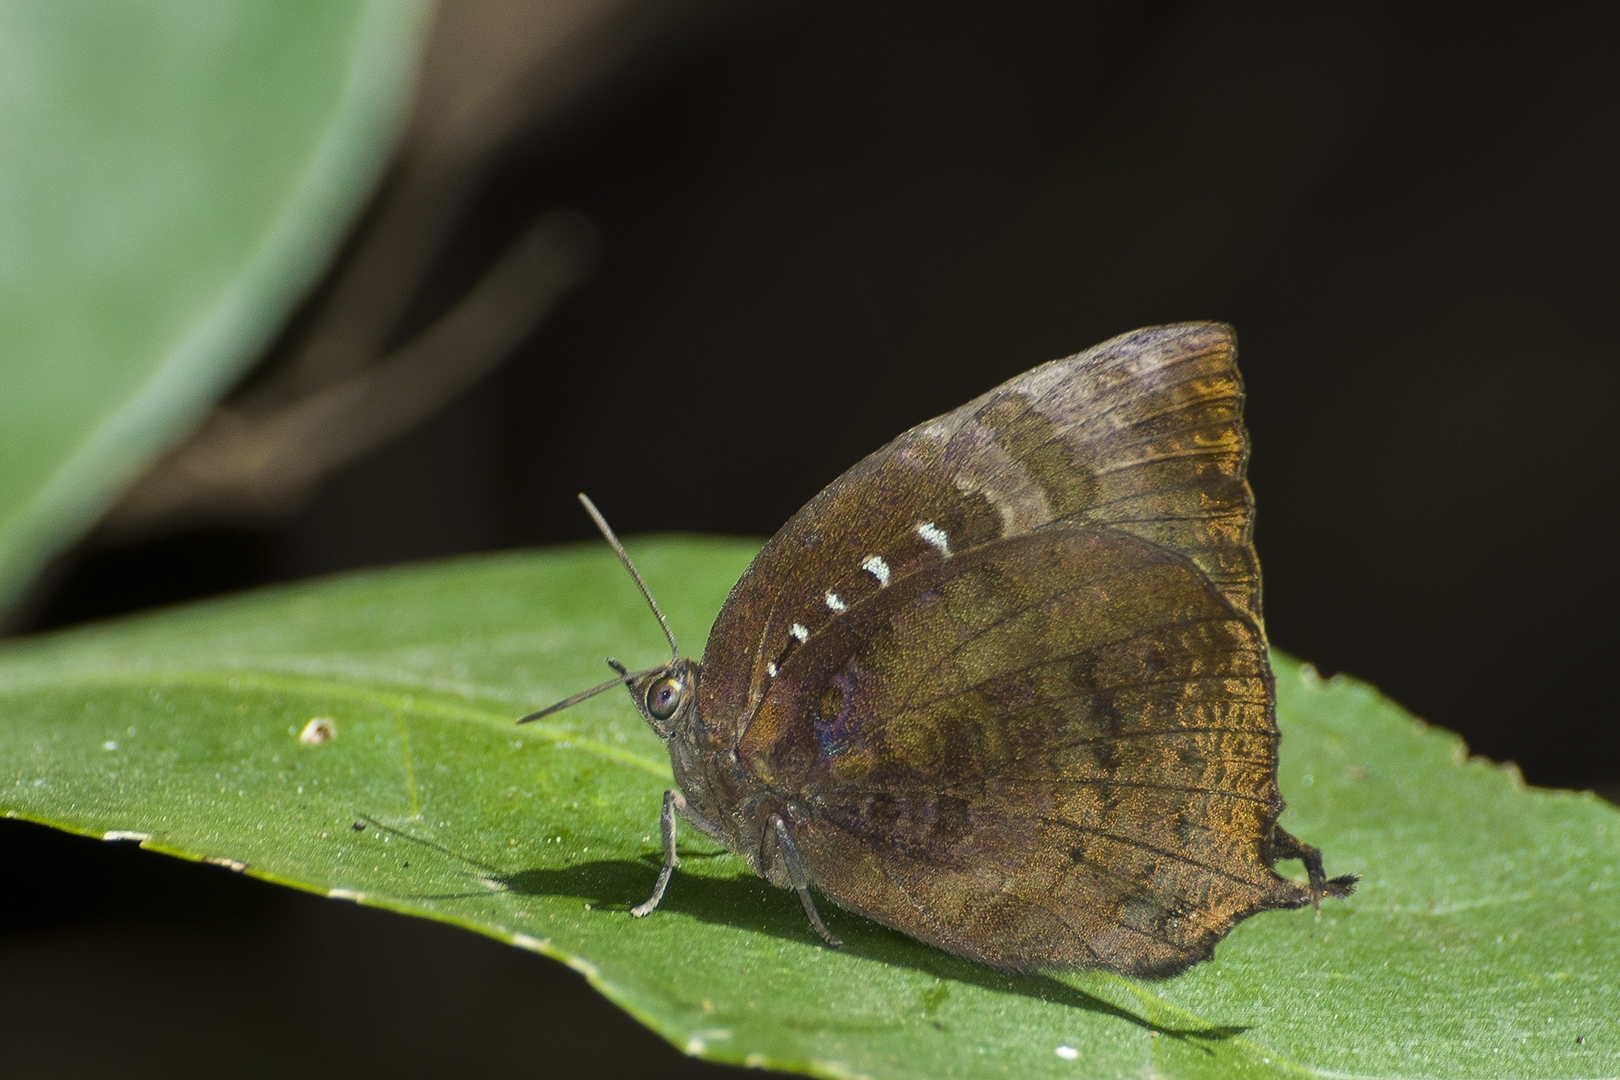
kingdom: Animalia
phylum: Arthropoda
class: Insecta
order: Lepidoptera
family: Lycaenidae
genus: Arhopala
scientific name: Arhopala centaurus
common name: Dull oak-blue
